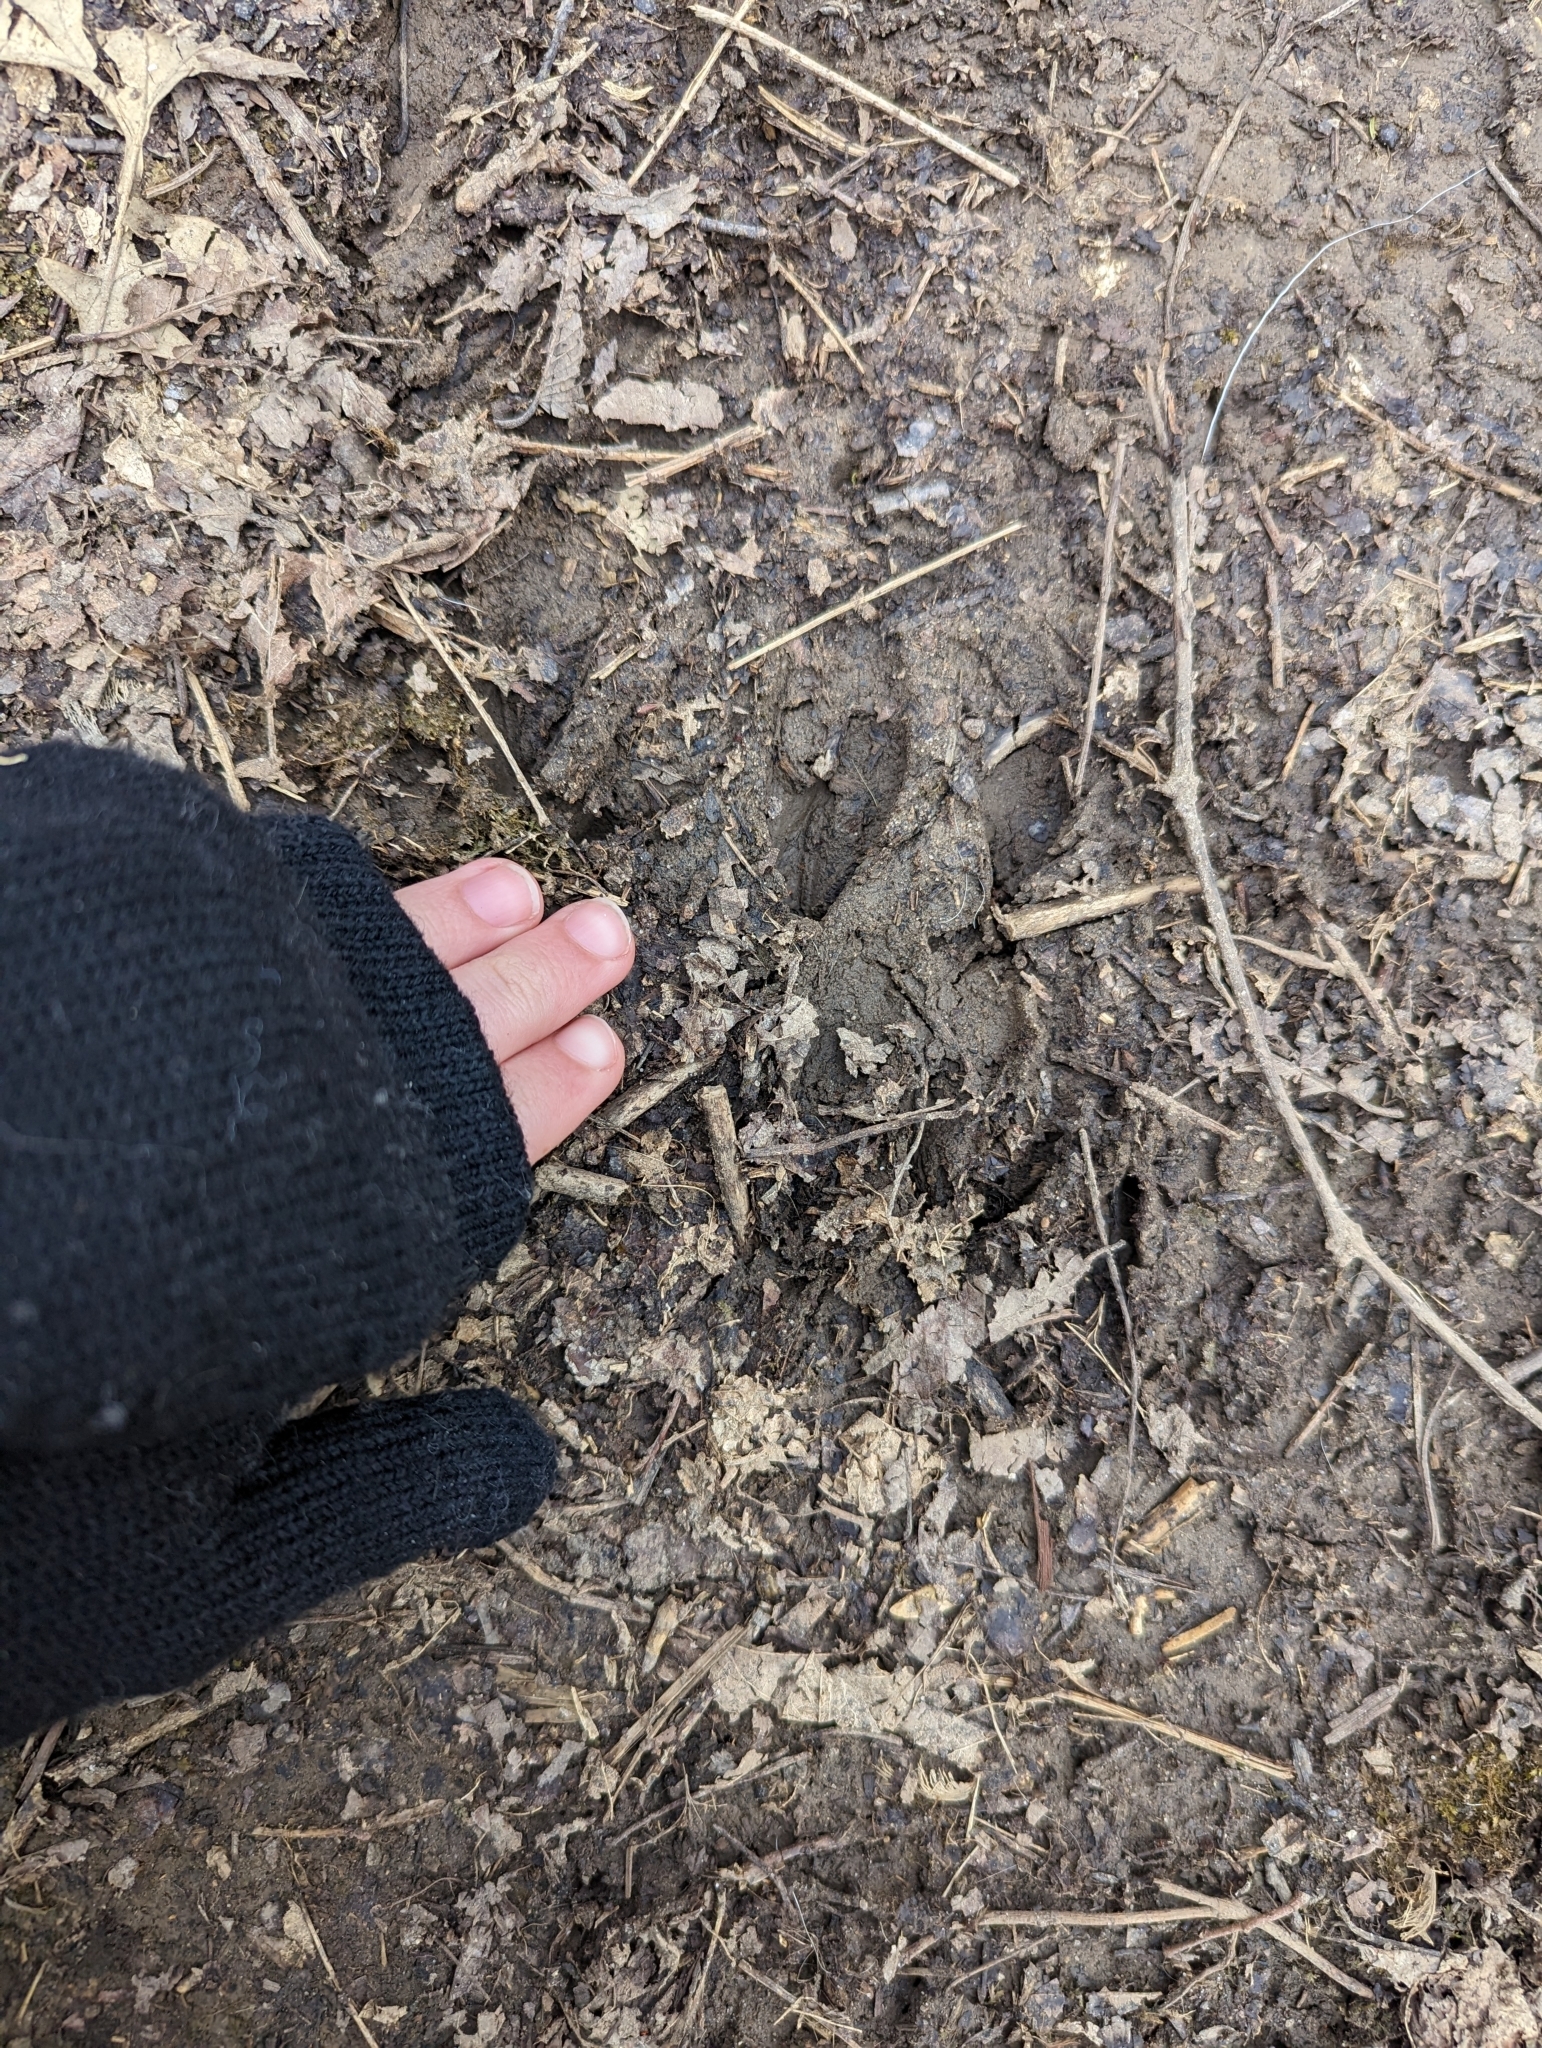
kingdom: Animalia
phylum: Chordata
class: Mammalia
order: Artiodactyla
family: Cervidae
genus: Odocoileus
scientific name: Odocoileus virginianus
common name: White-tailed deer
